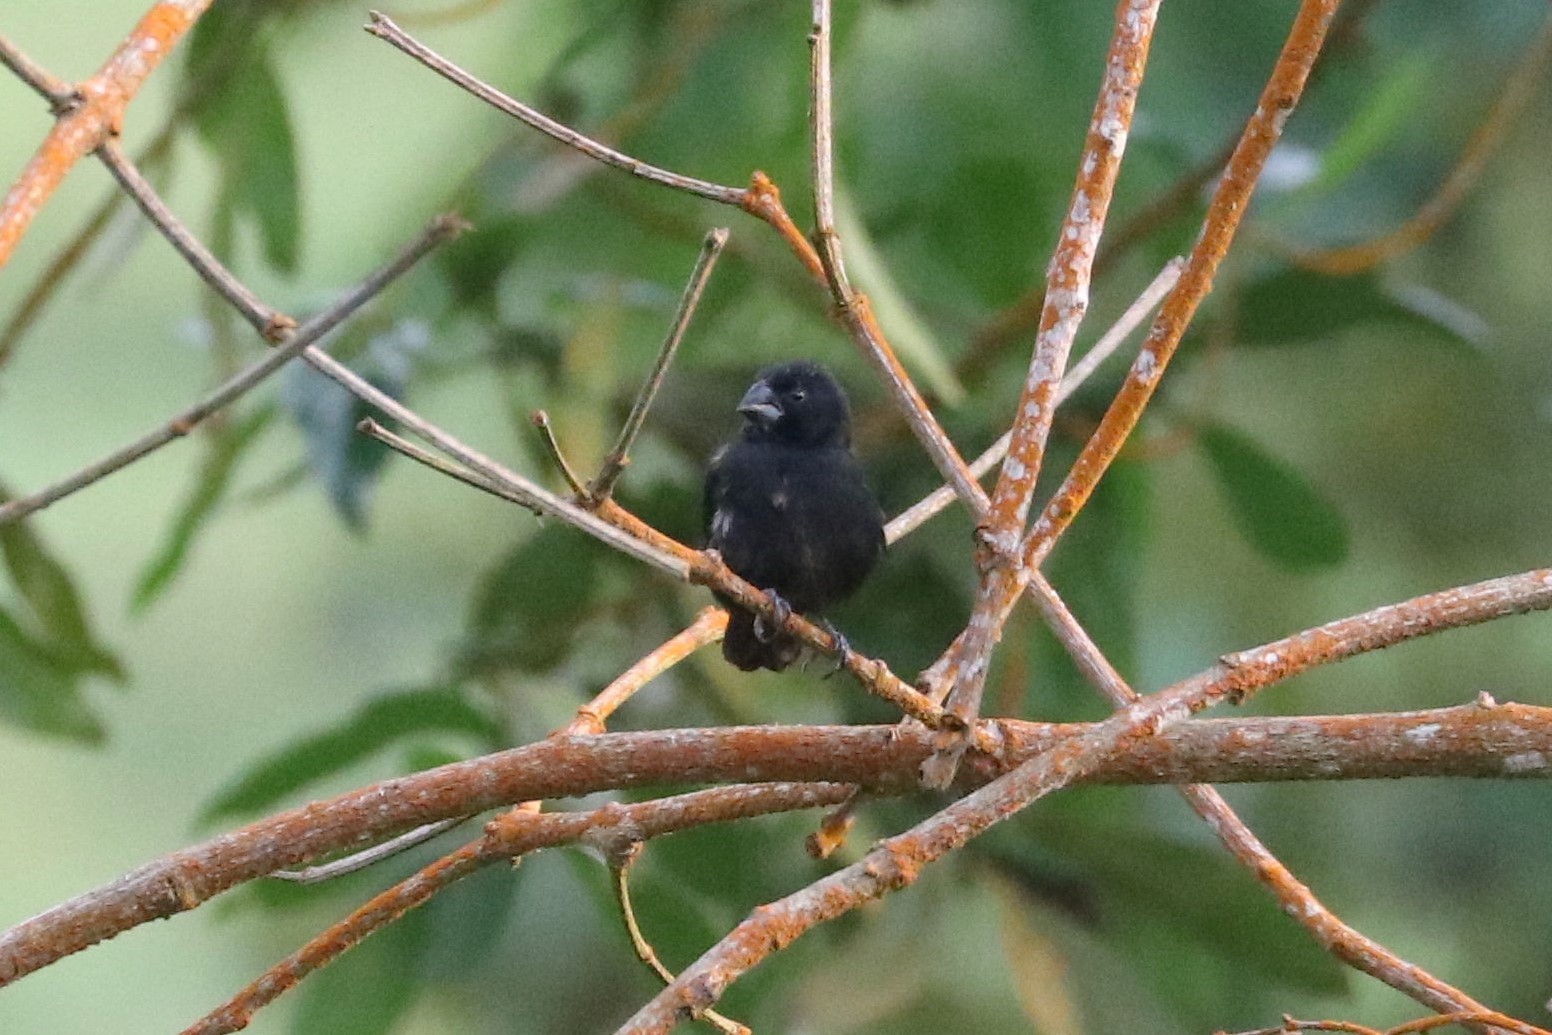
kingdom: Animalia
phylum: Chordata
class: Aves
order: Passeriformes
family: Thraupidae
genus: Sporophila
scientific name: Sporophila funerea
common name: Thick-billed seed-finch
